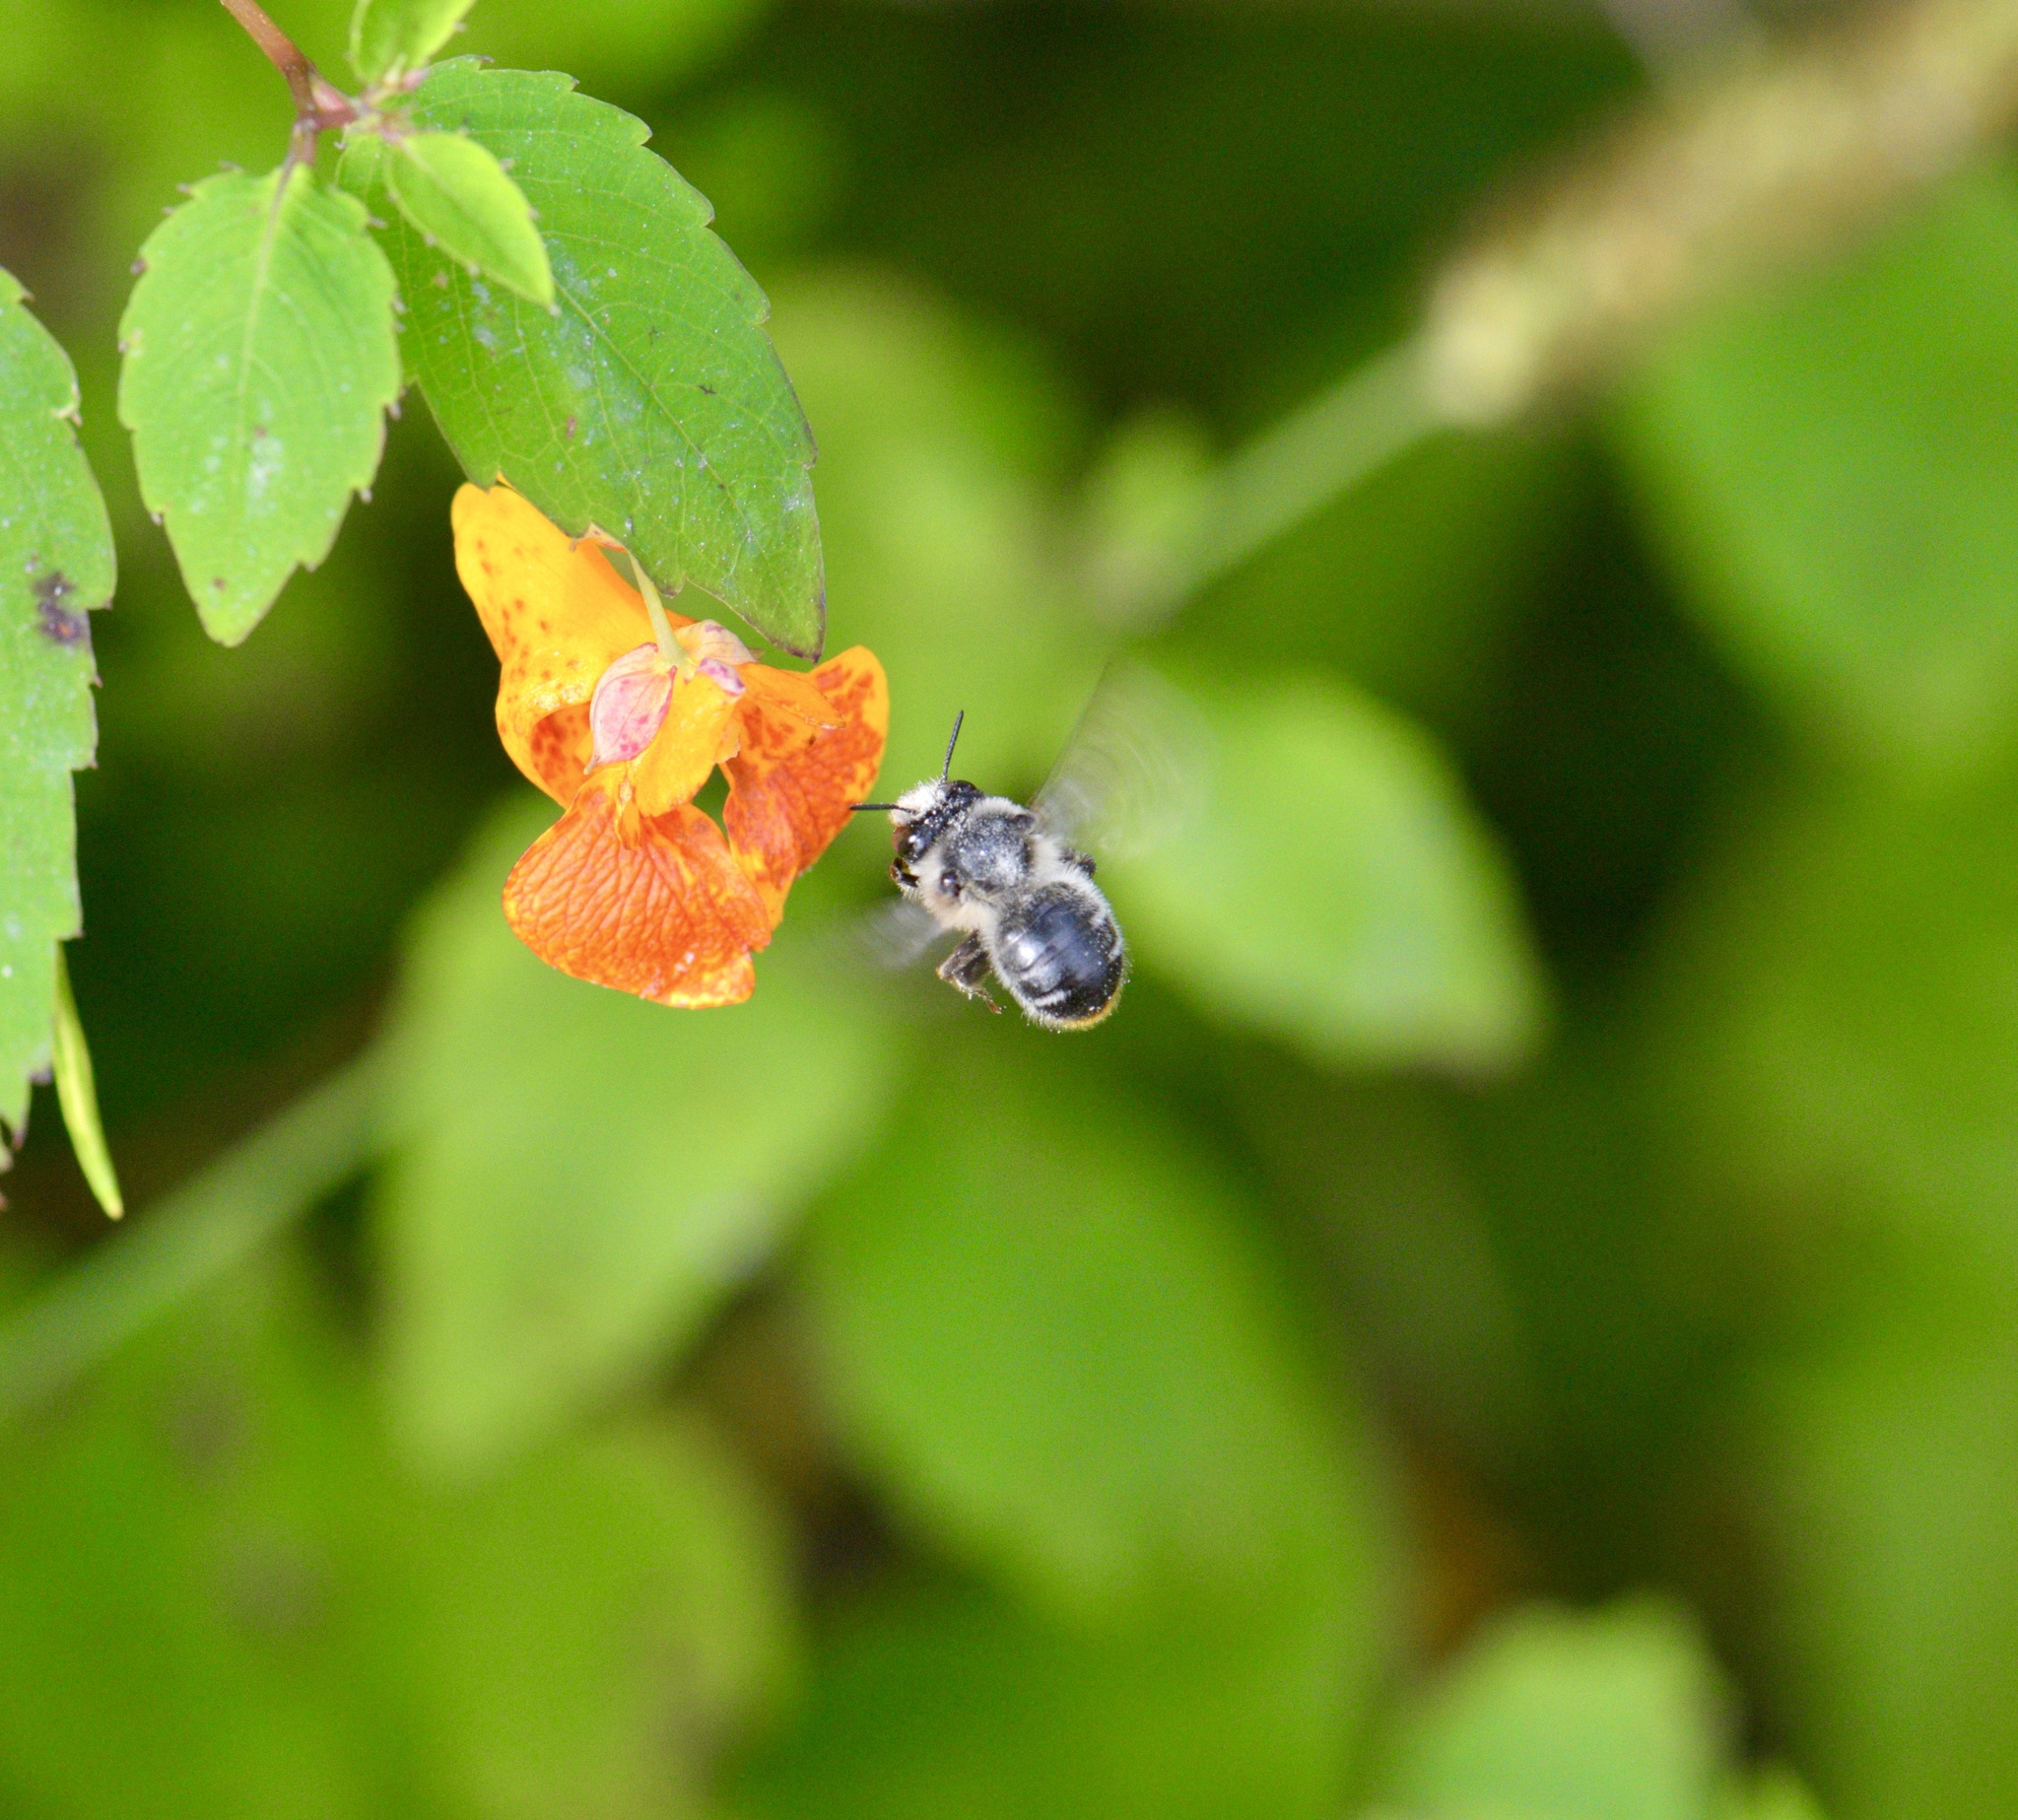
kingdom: Animalia
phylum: Arthropoda
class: Insecta
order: Hymenoptera
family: Apidae
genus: Anthophora
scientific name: Anthophora terminalis
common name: Orange-tipped wood-digger bee
